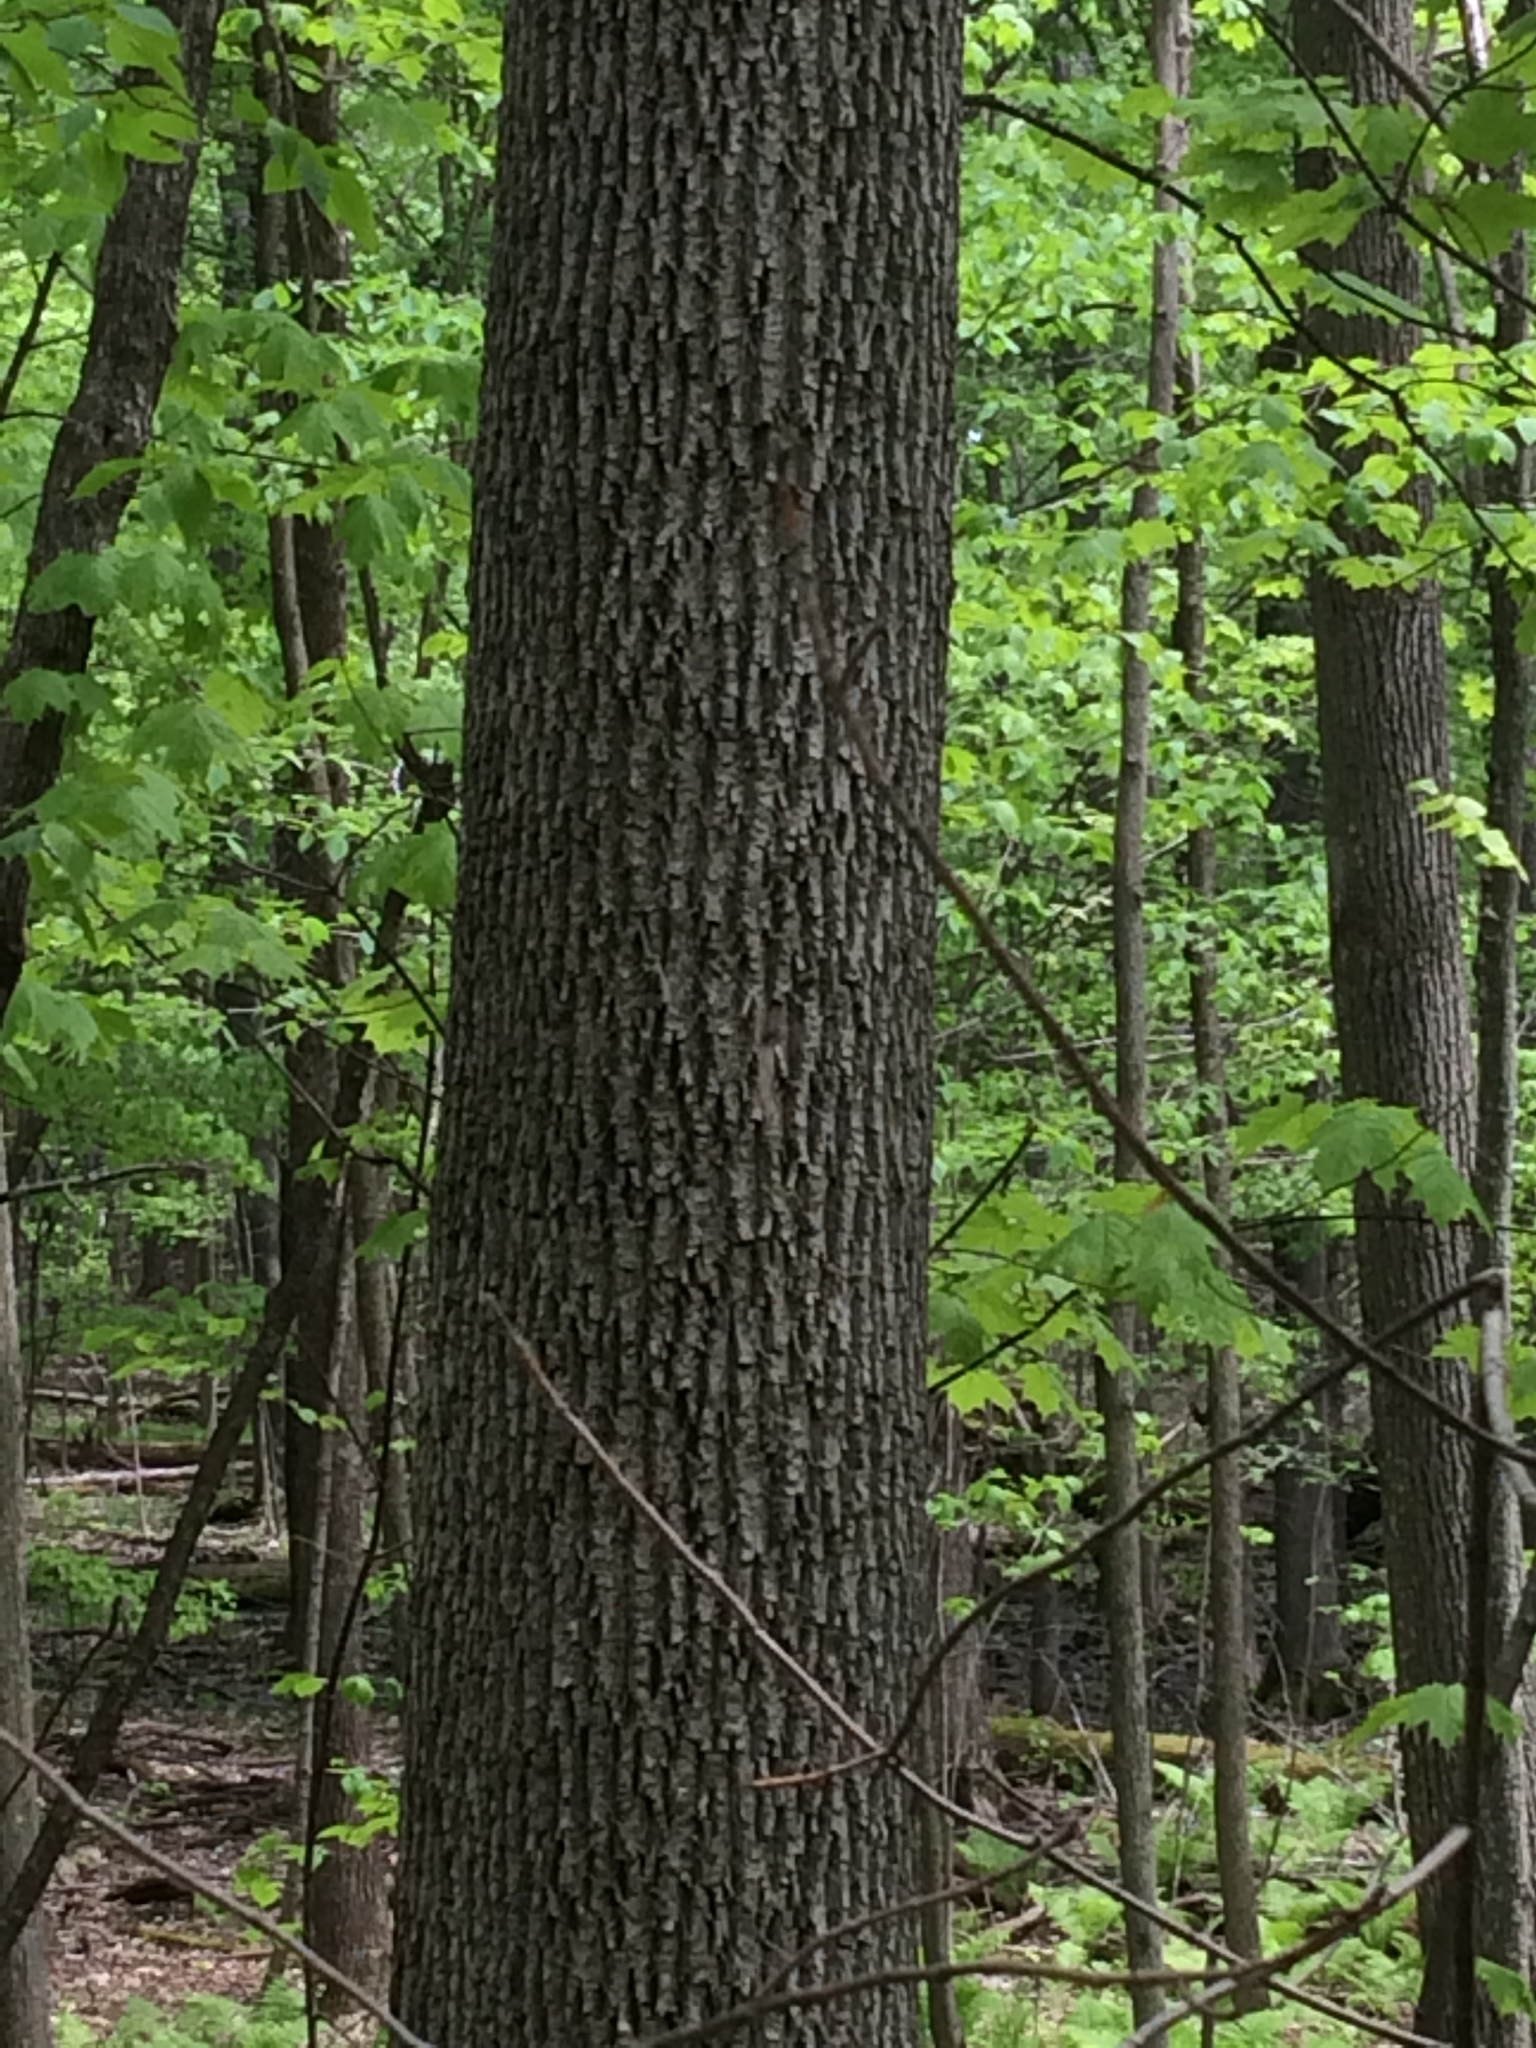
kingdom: Plantae
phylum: Tracheophyta
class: Magnoliopsida
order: Lamiales
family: Oleaceae
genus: Fraxinus
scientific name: Fraxinus americana
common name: White ash
